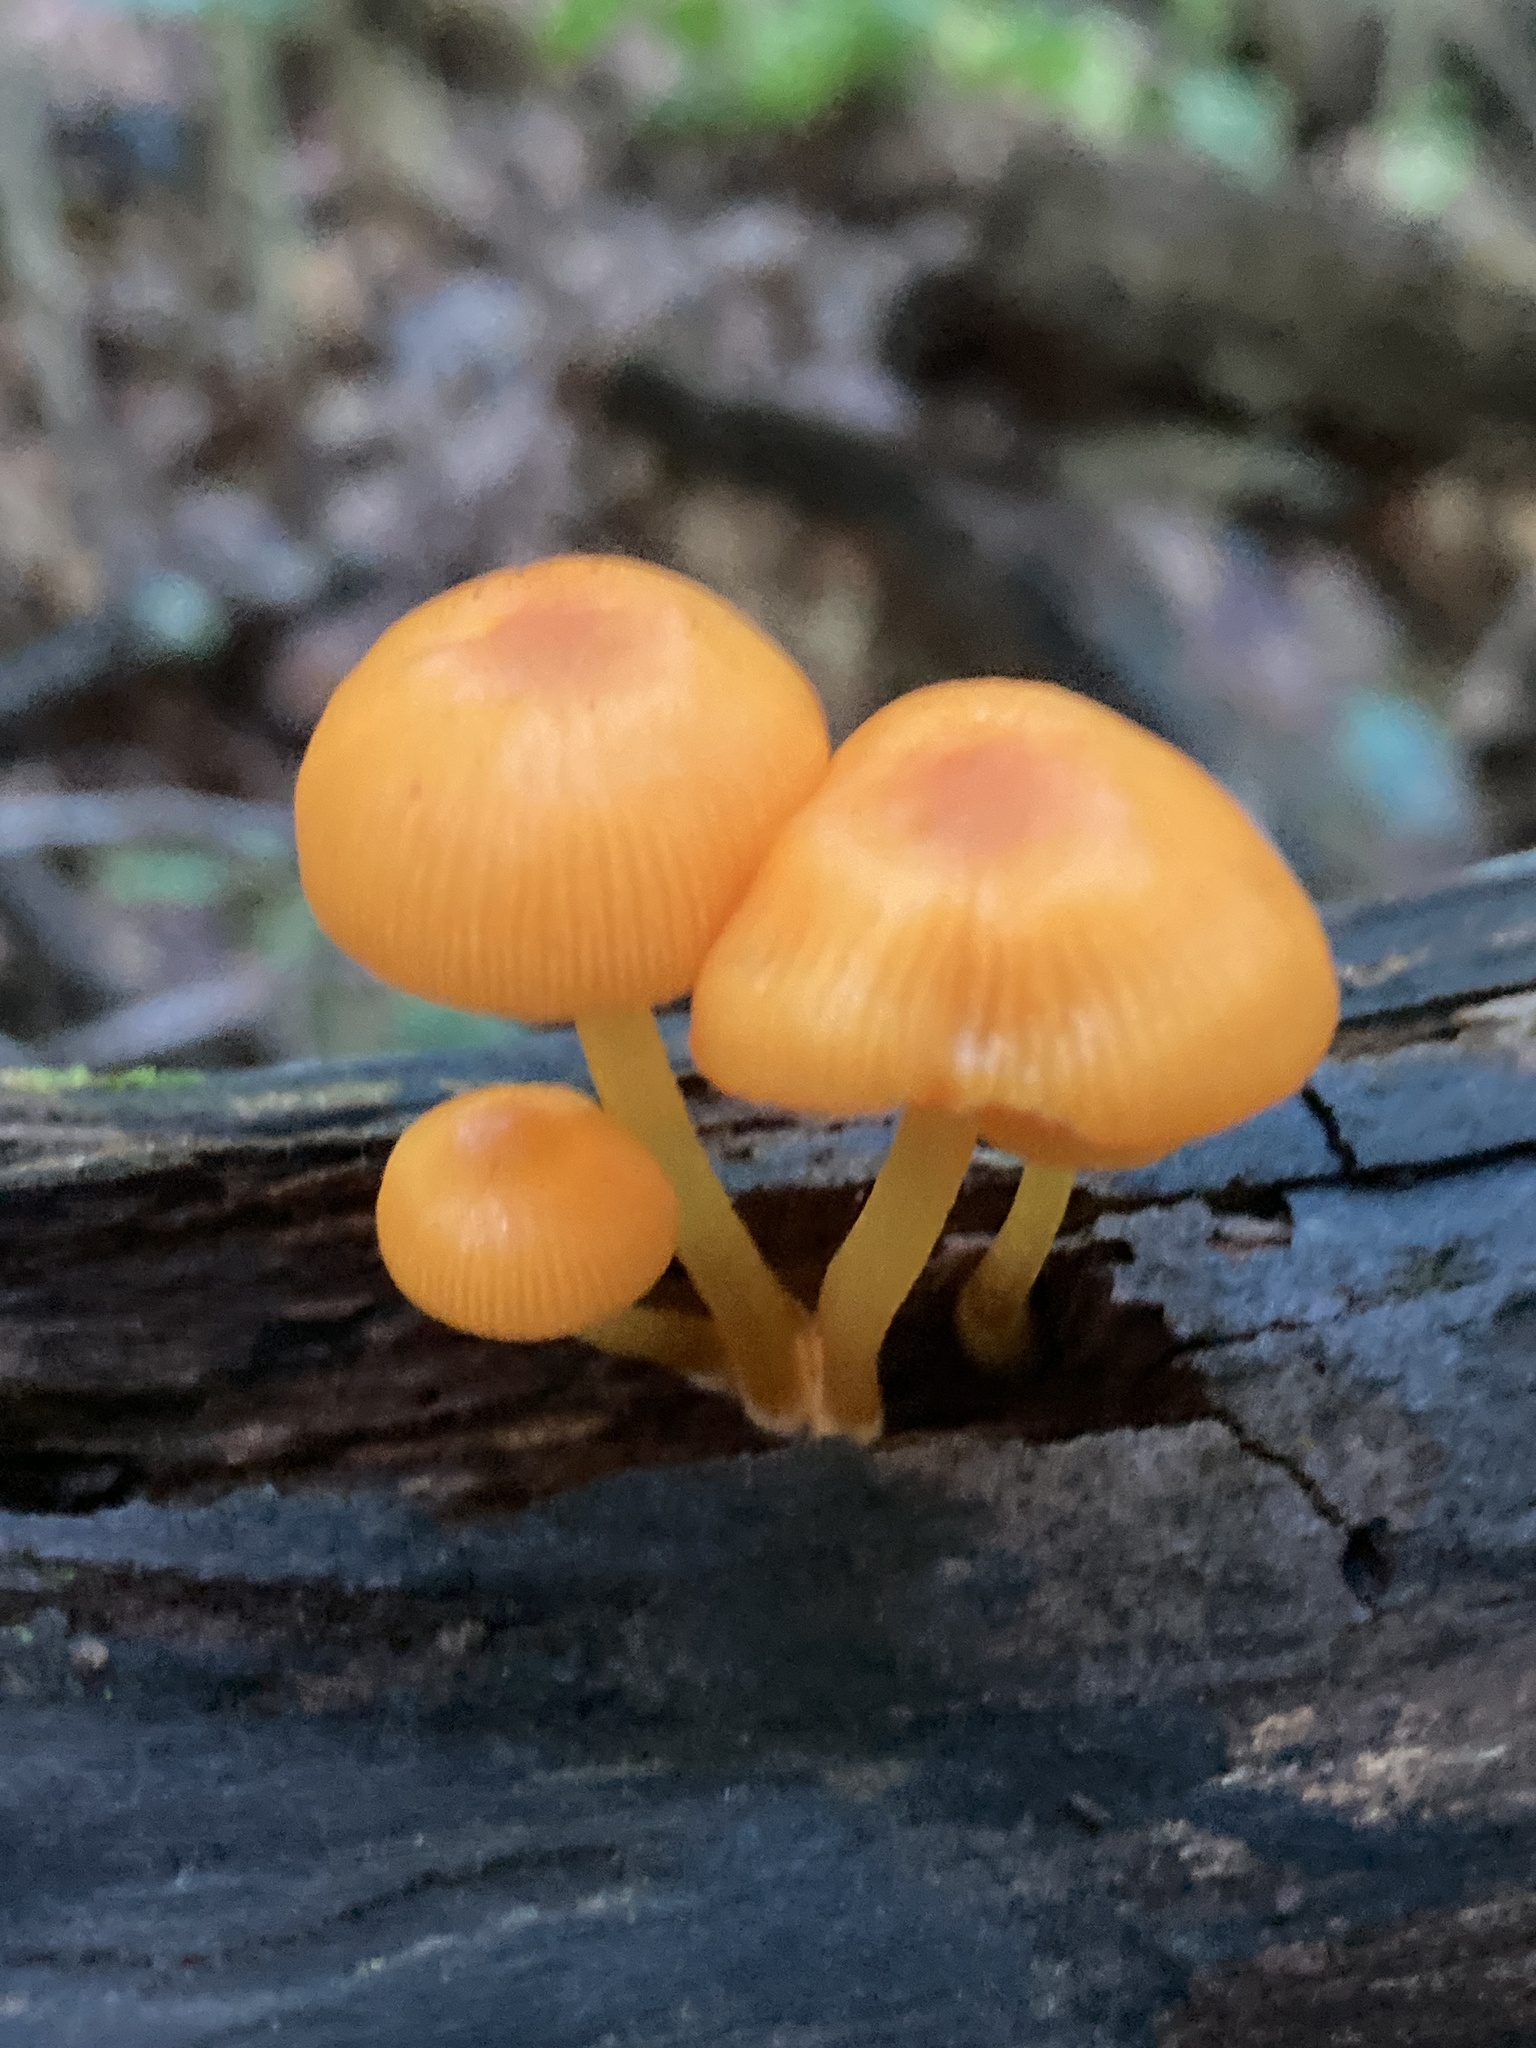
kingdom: Fungi
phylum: Basidiomycota
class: Agaricomycetes
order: Agaricales
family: Mycenaceae
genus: Mycena
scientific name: Mycena leaiana
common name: Orange mycena
